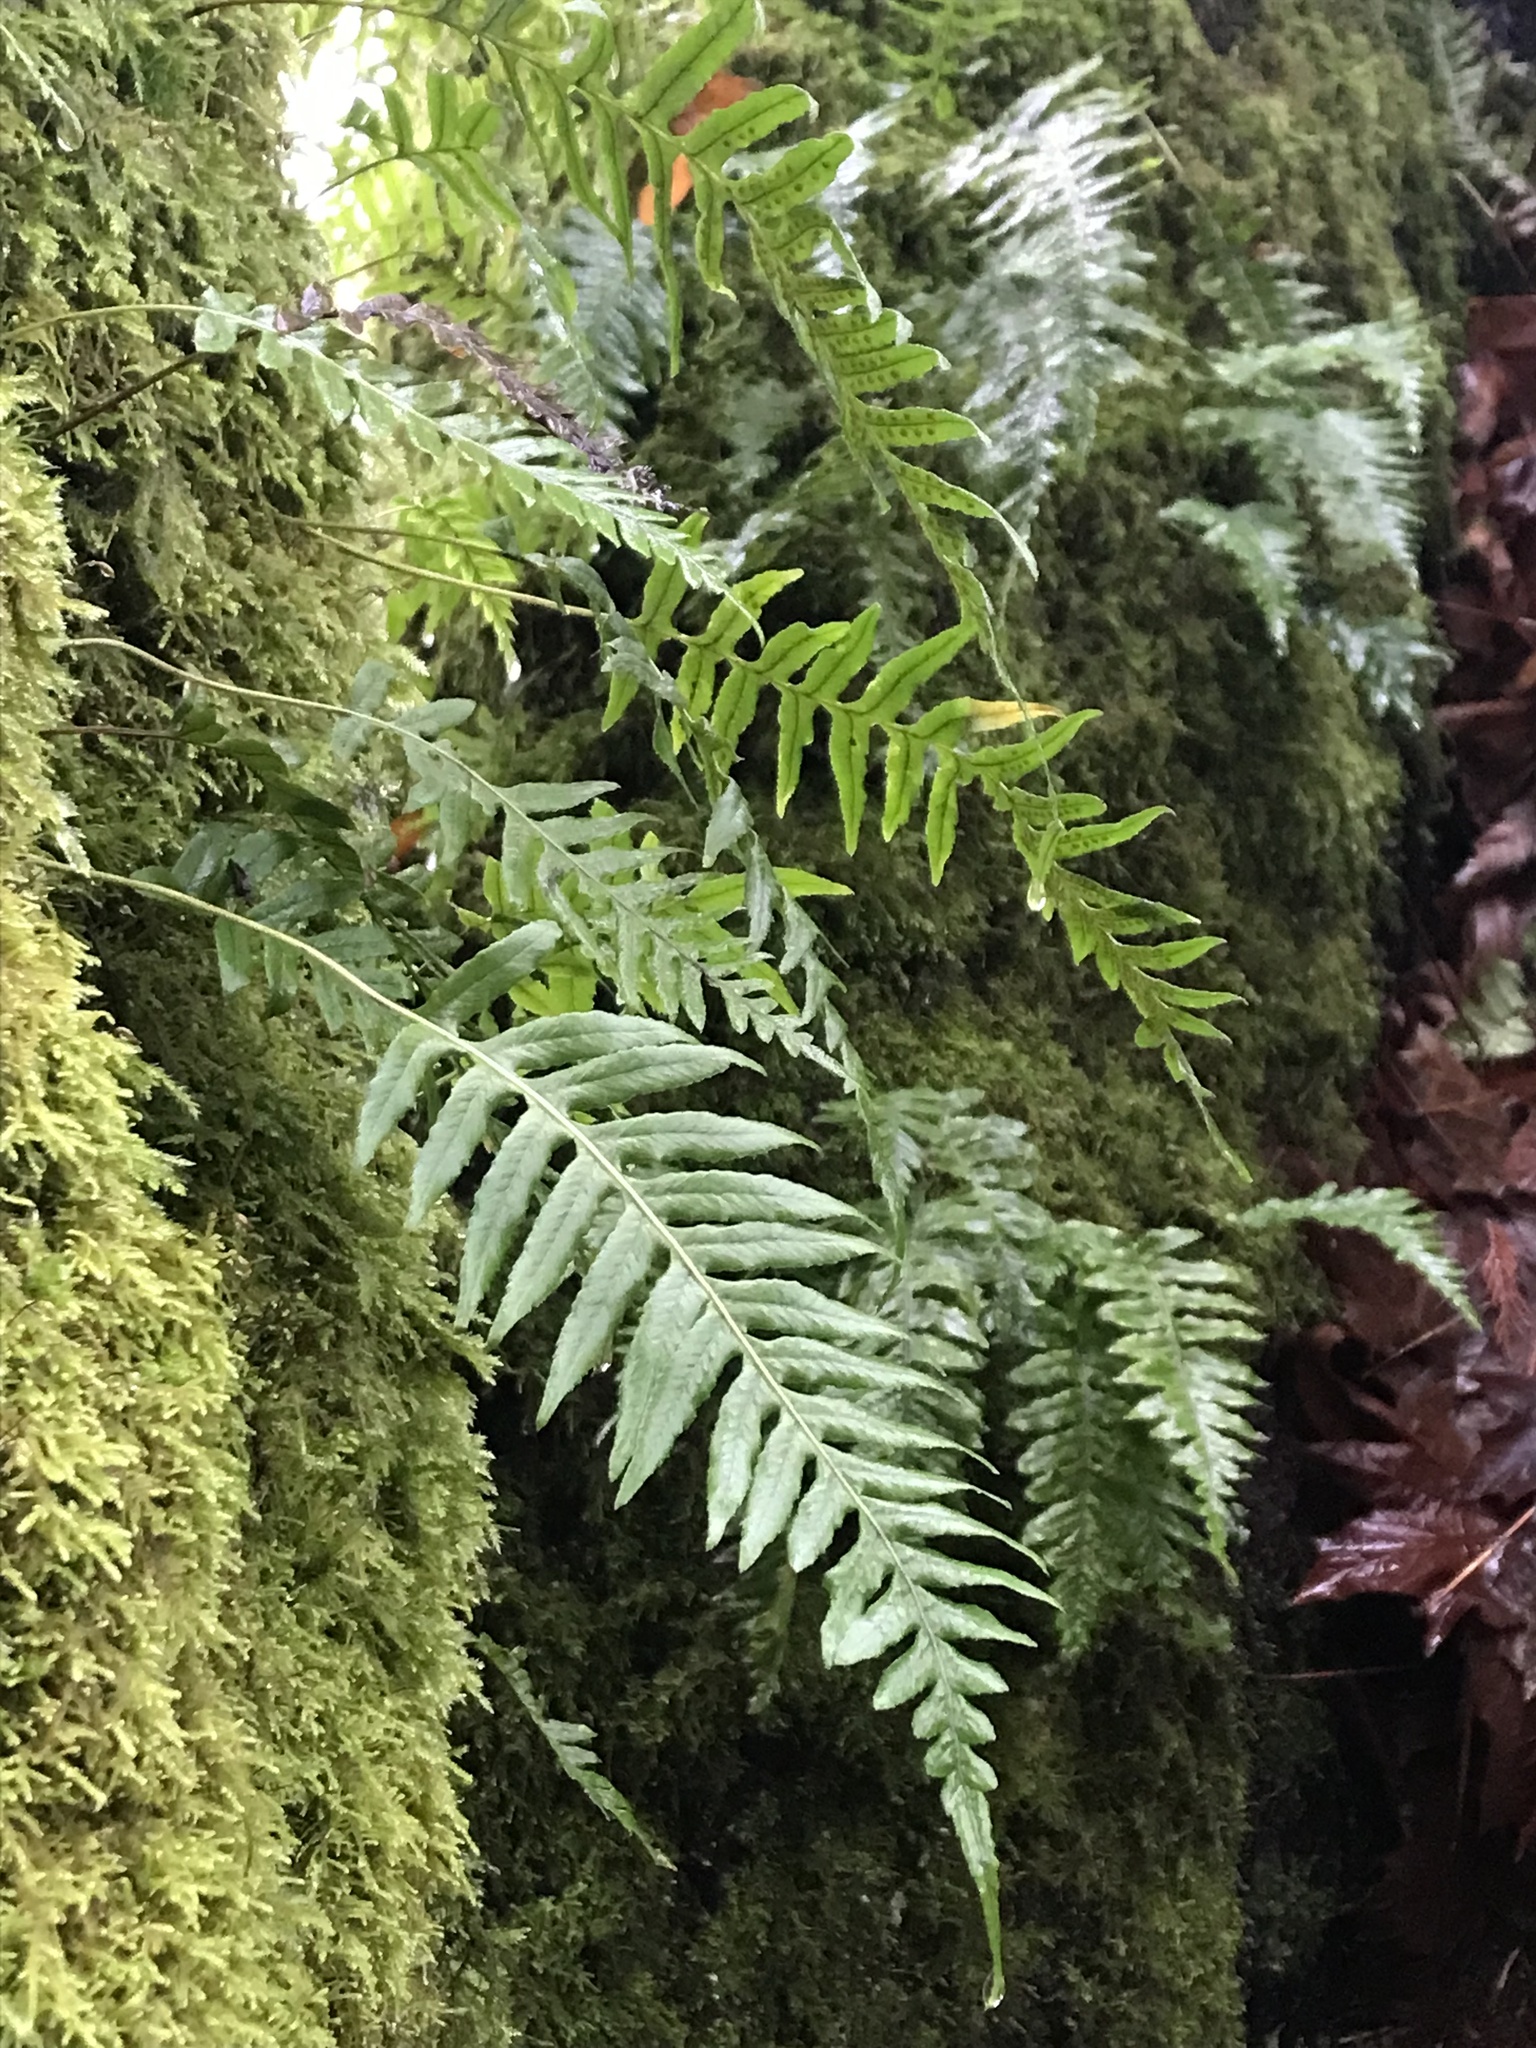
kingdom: Plantae
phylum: Tracheophyta
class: Polypodiopsida
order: Polypodiales
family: Polypodiaceae
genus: Polypodium
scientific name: Polypodium glycyrrhiza
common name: Licorice fern
